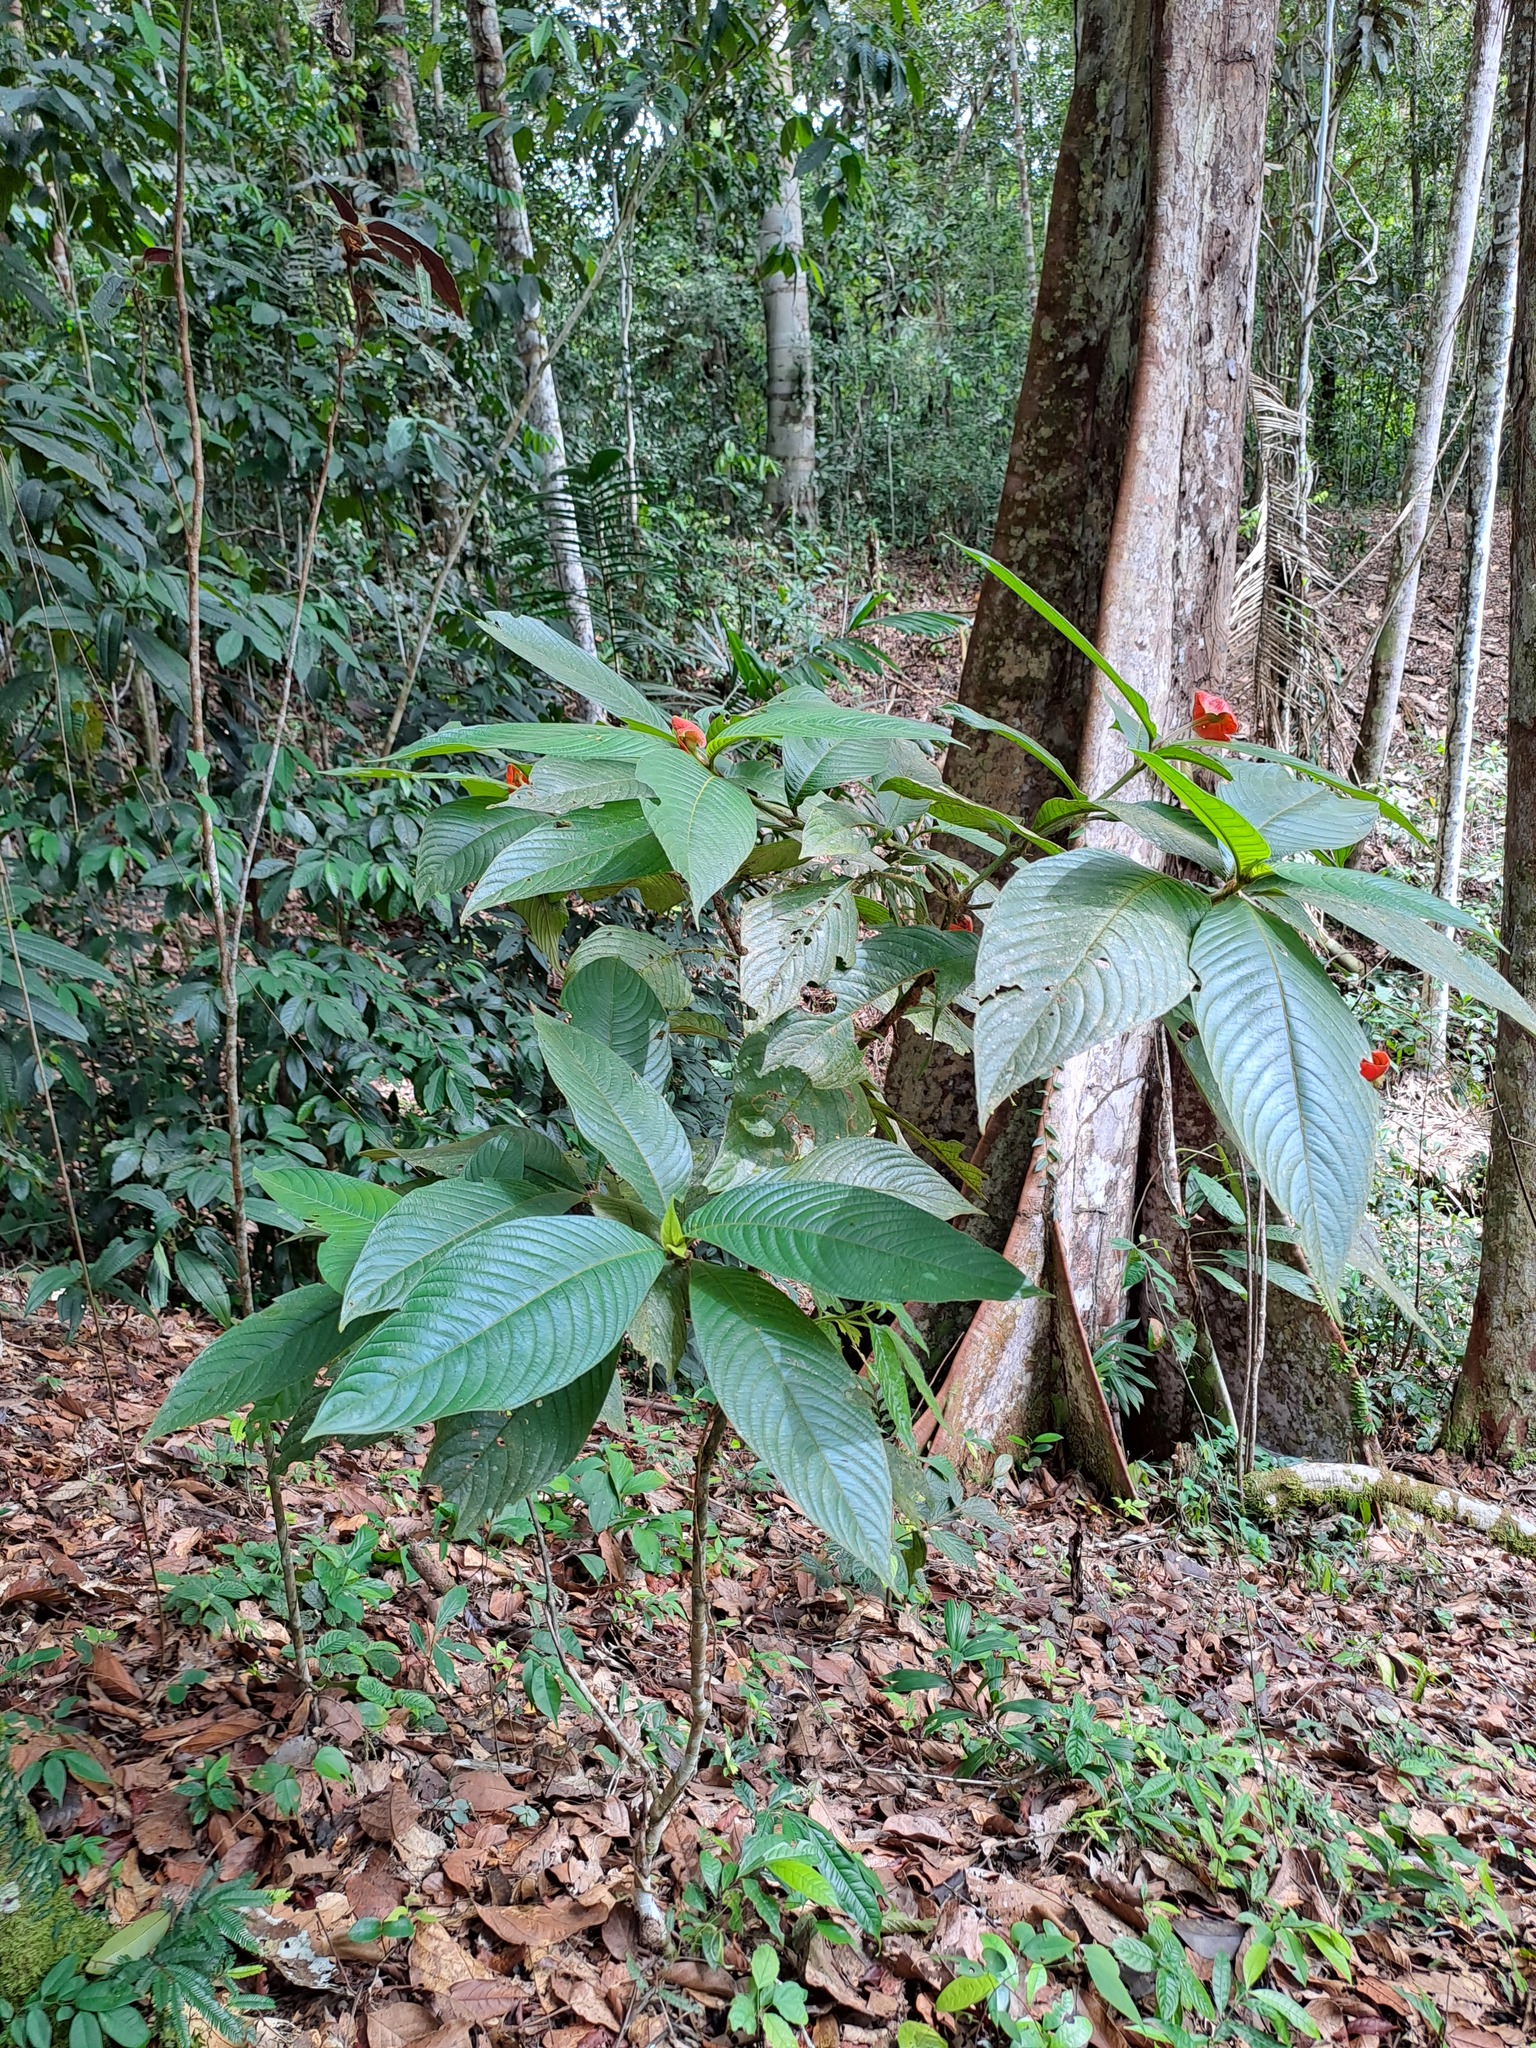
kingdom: Plantae
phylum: Tracheophyta
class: Magnoliopsida
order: Gentianales
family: Rubiaceae
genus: Palicourea
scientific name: Palicourea tomentosa
